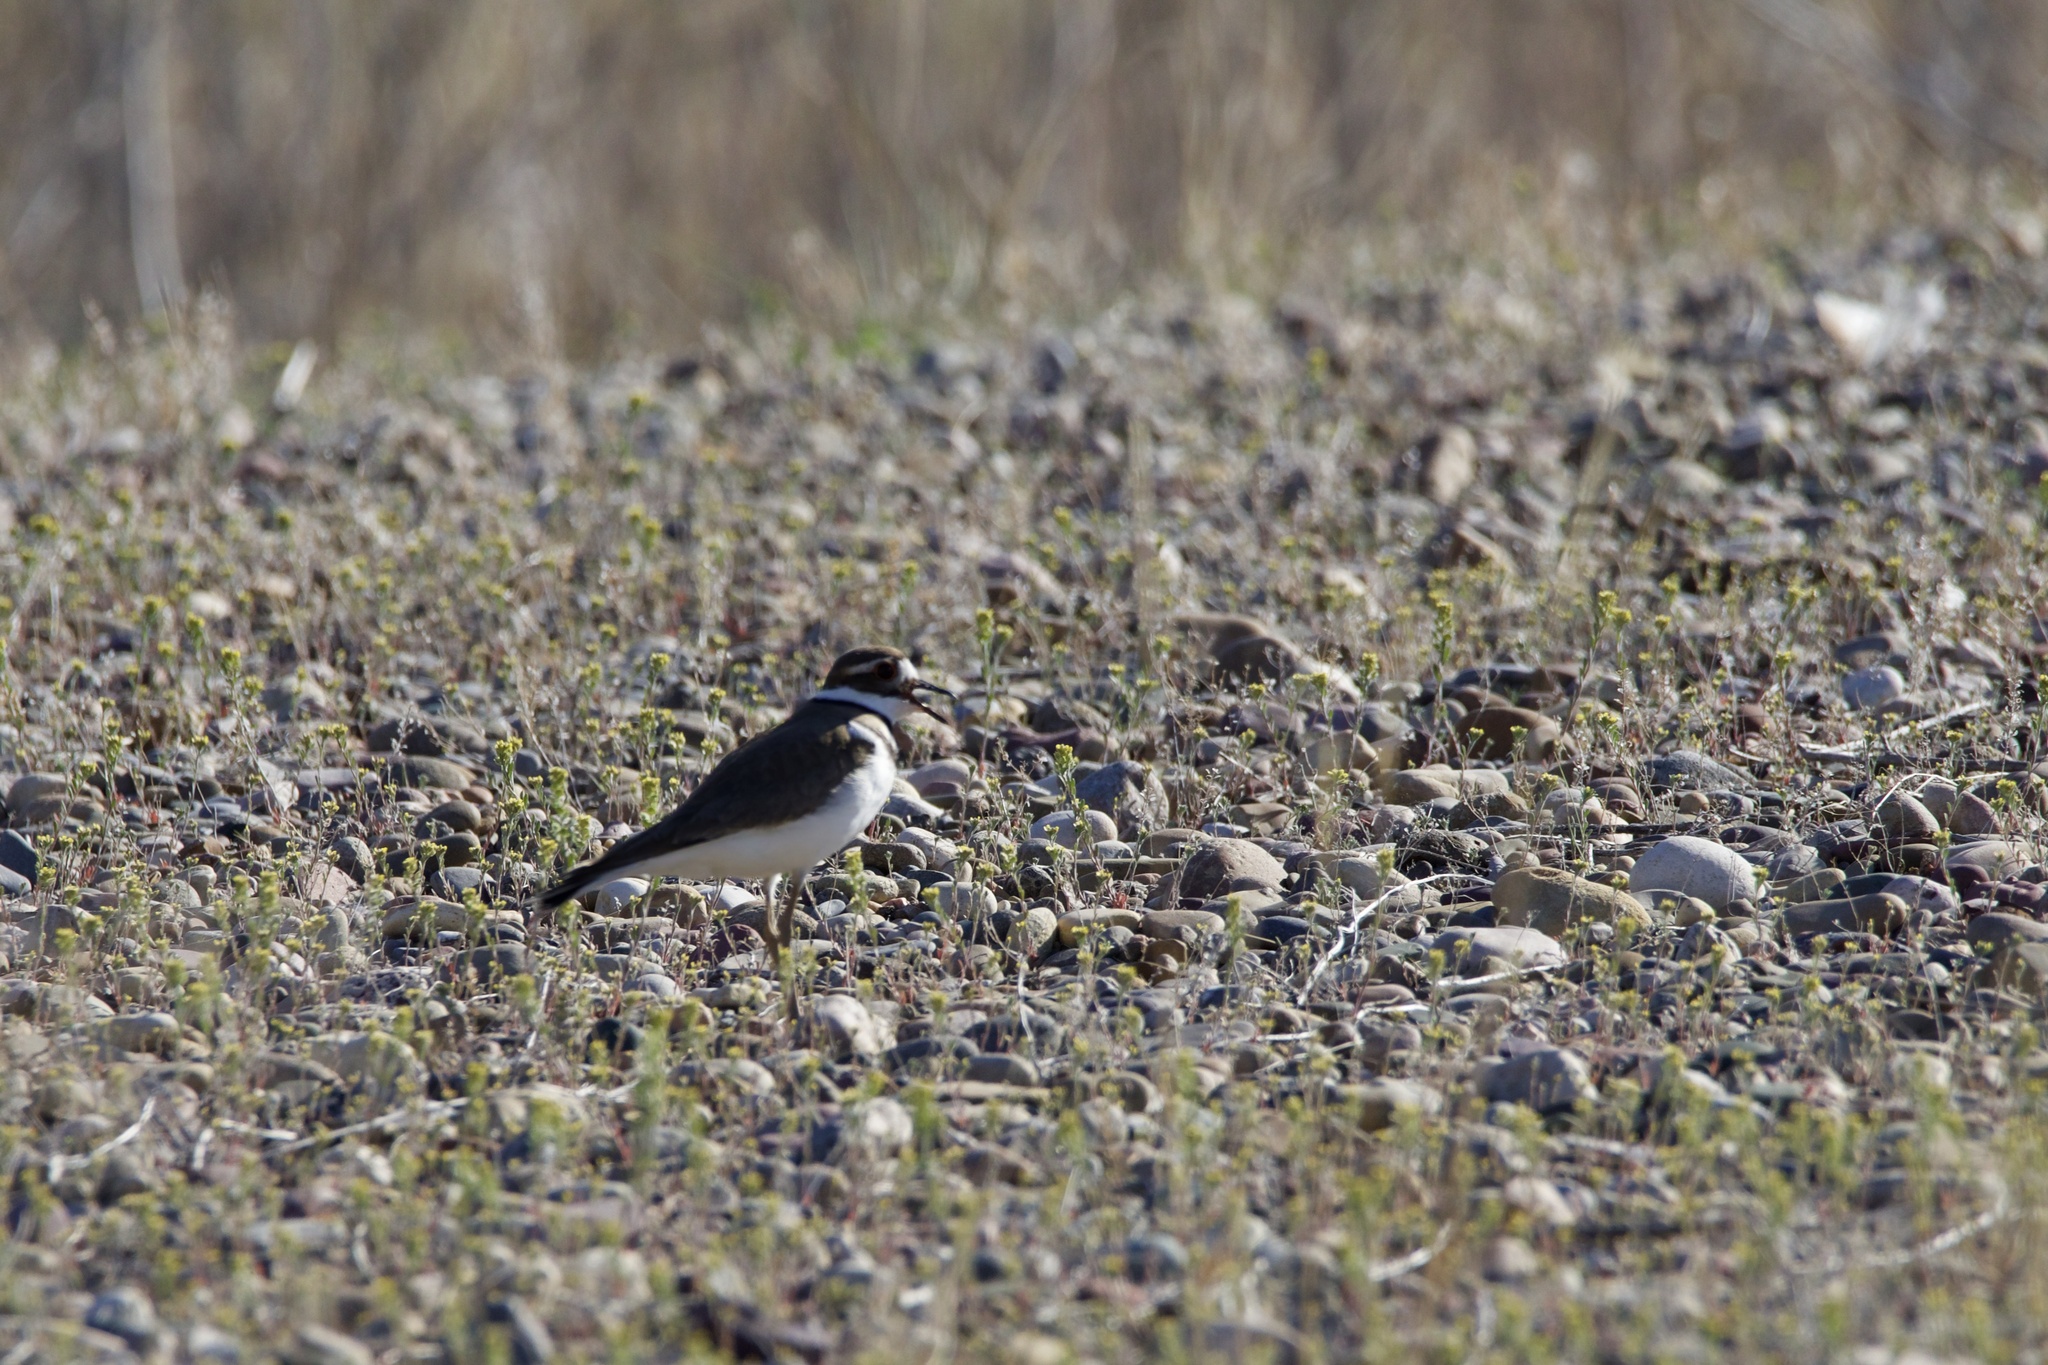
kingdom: Animalia
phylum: Chordata
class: Aves
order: Charadriiformes
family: Charadriidae
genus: Charadrius
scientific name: Charadrius vociferus
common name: Killdeer
